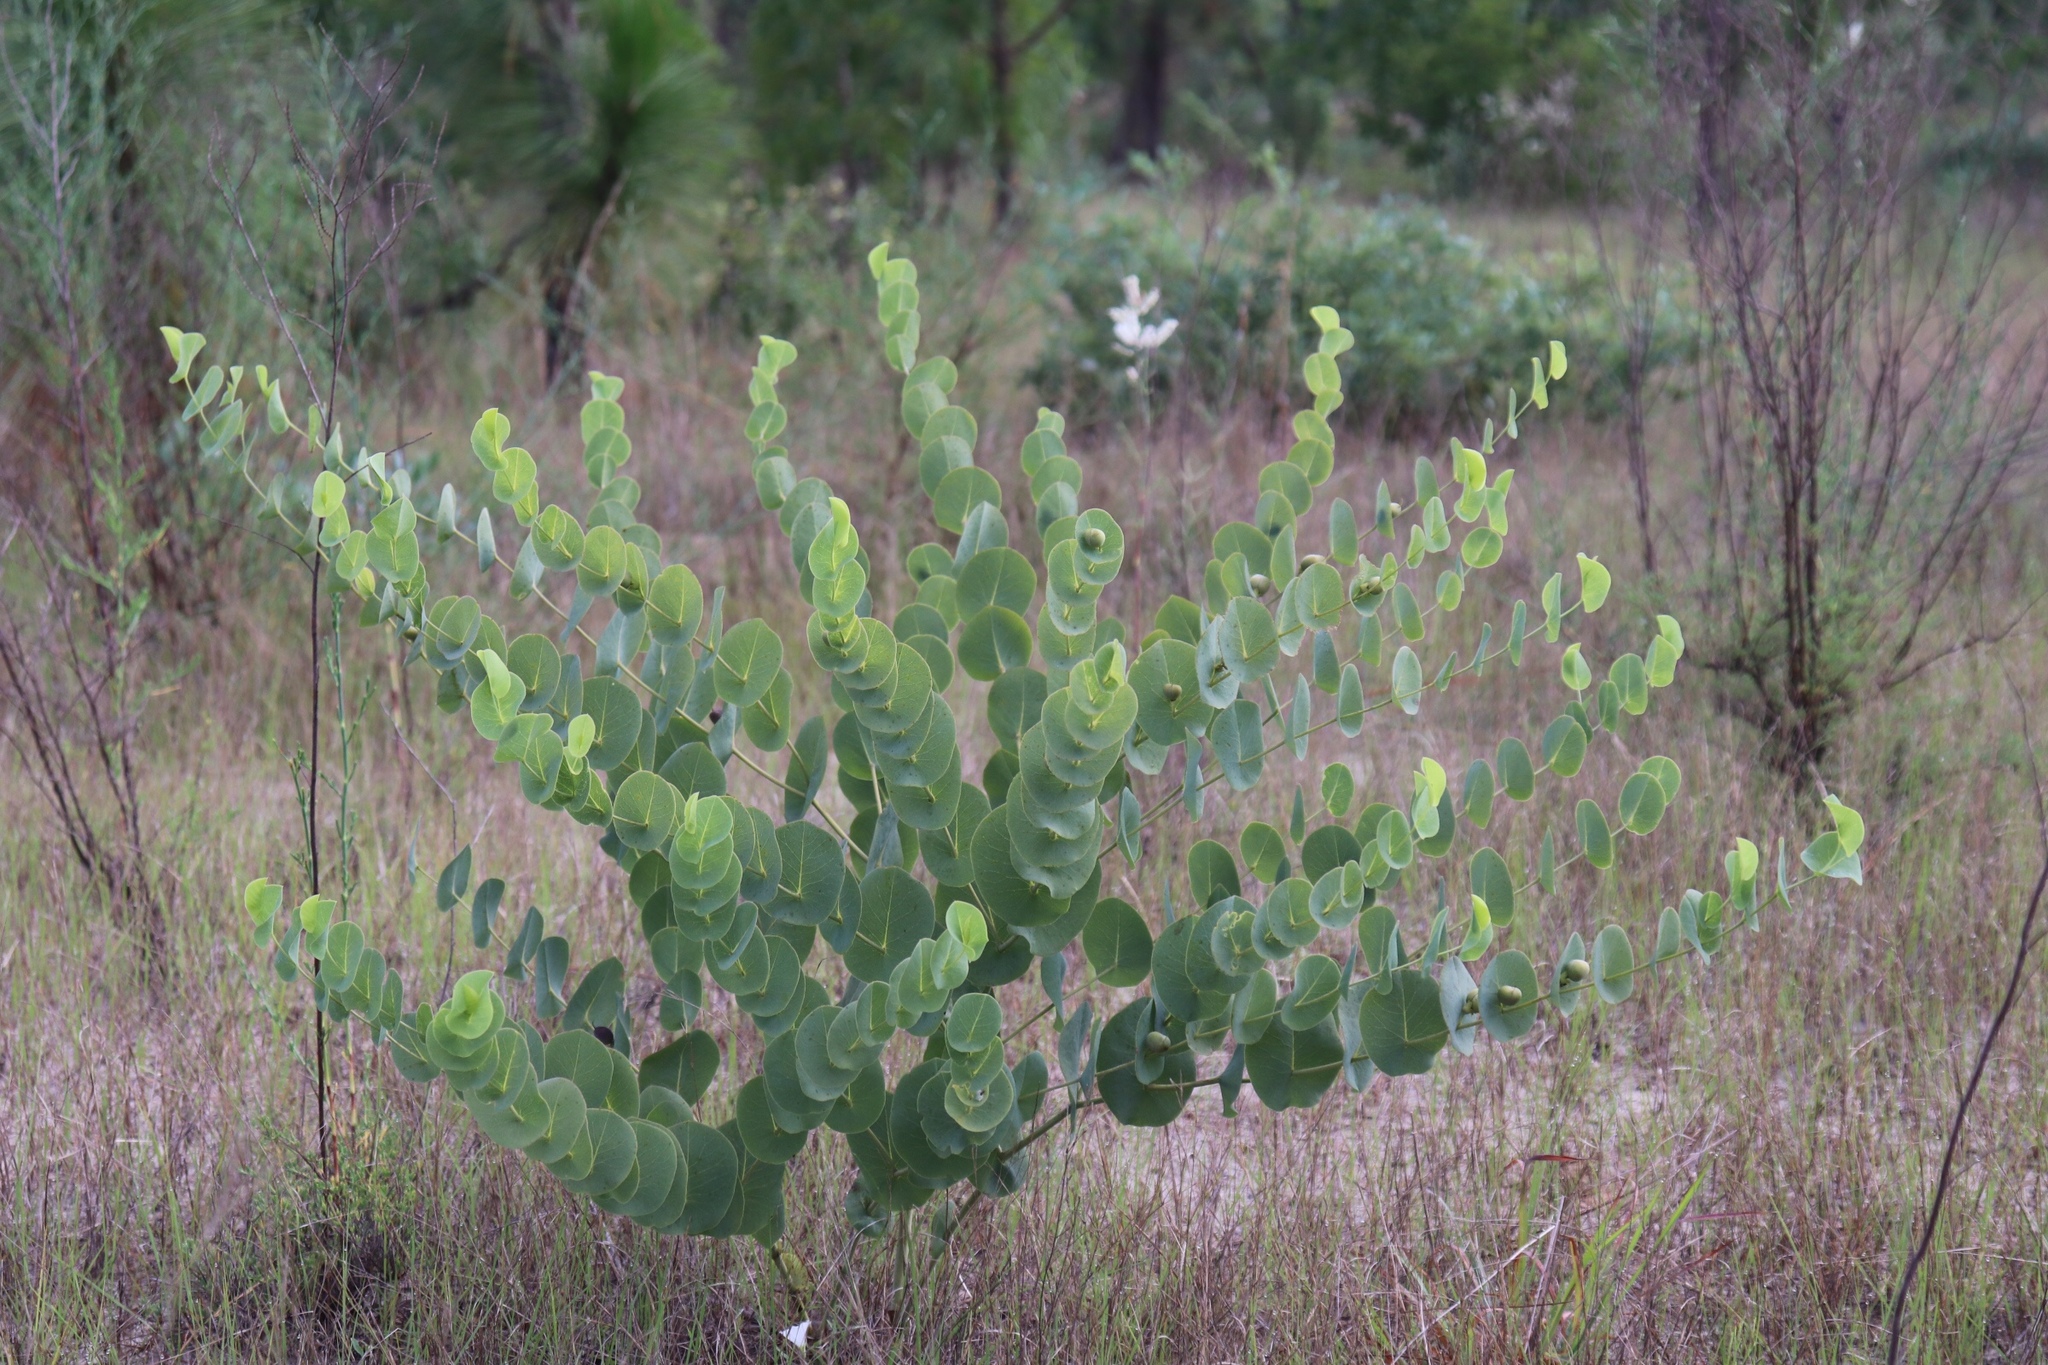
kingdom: Plantae
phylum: Tracheophyta
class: Magnoliopsida
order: Fabales
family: Fabaceae
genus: Baptisia
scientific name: Baptisia perfoliata
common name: Catbells
